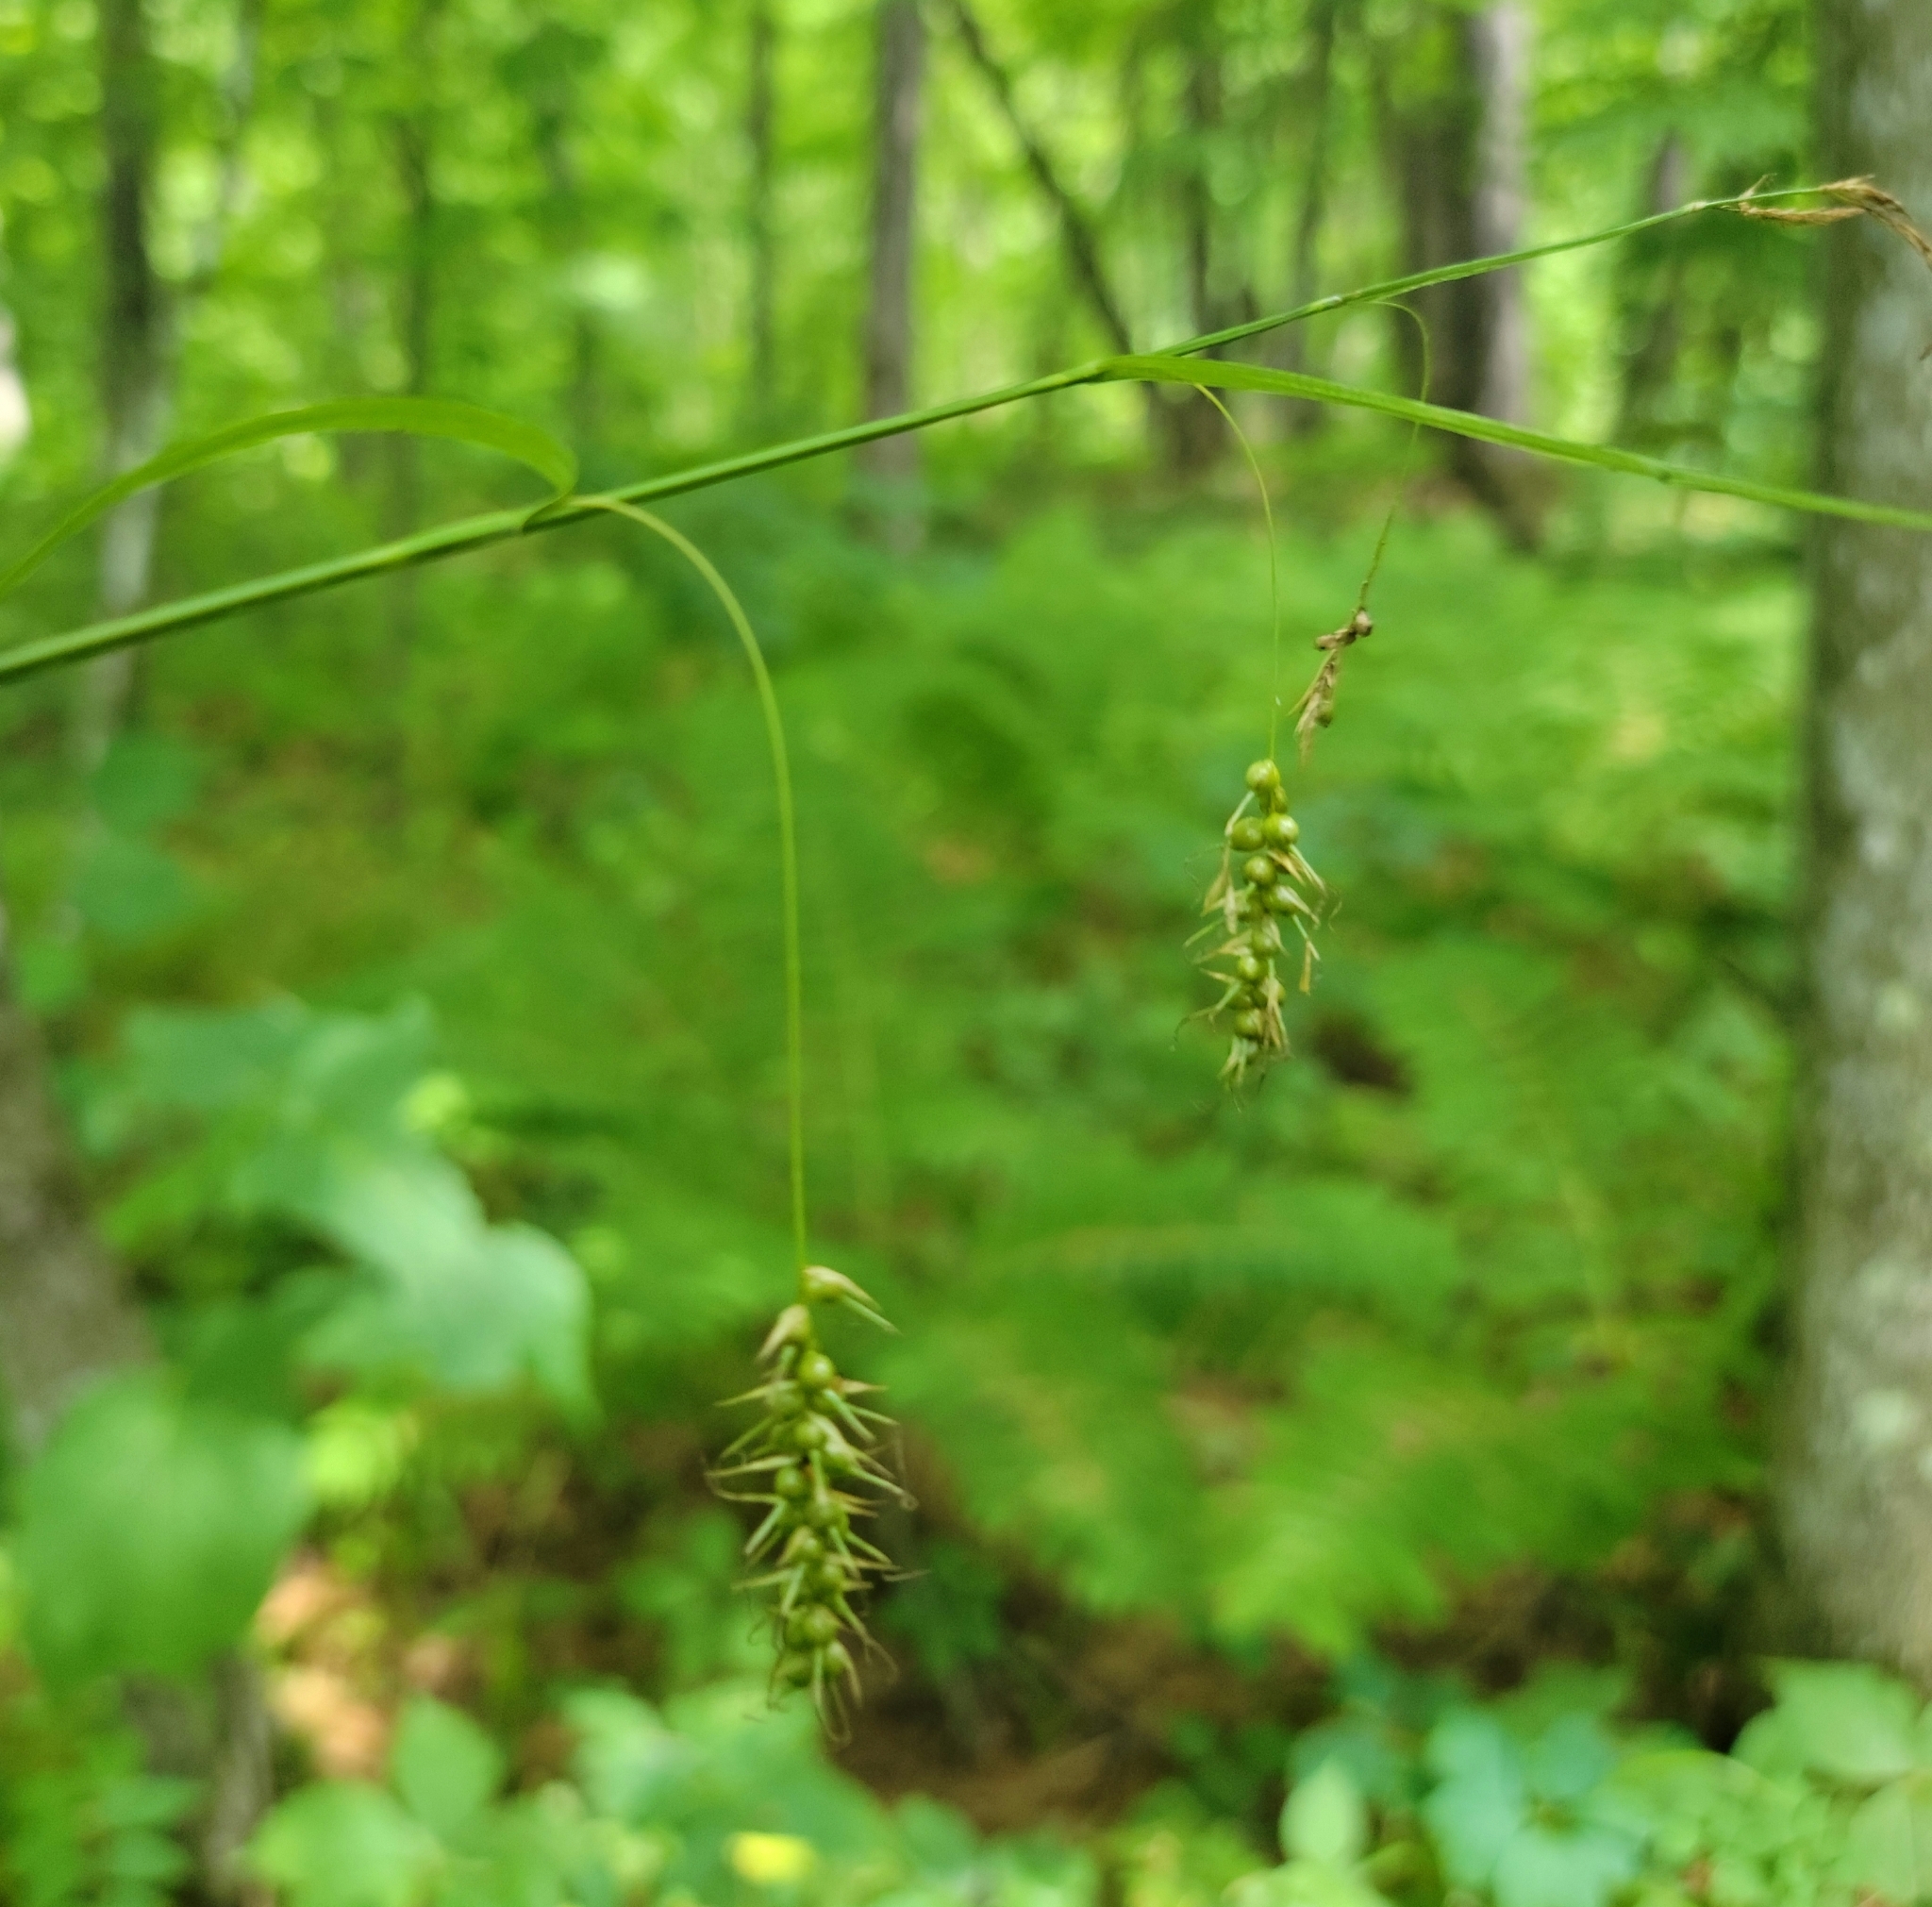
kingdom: Plantae
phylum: Tracheophyta
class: Liliopsida
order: Poales
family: Cyperaceae
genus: Carex
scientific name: Carex sprengelii
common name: Long-beaked sedge
